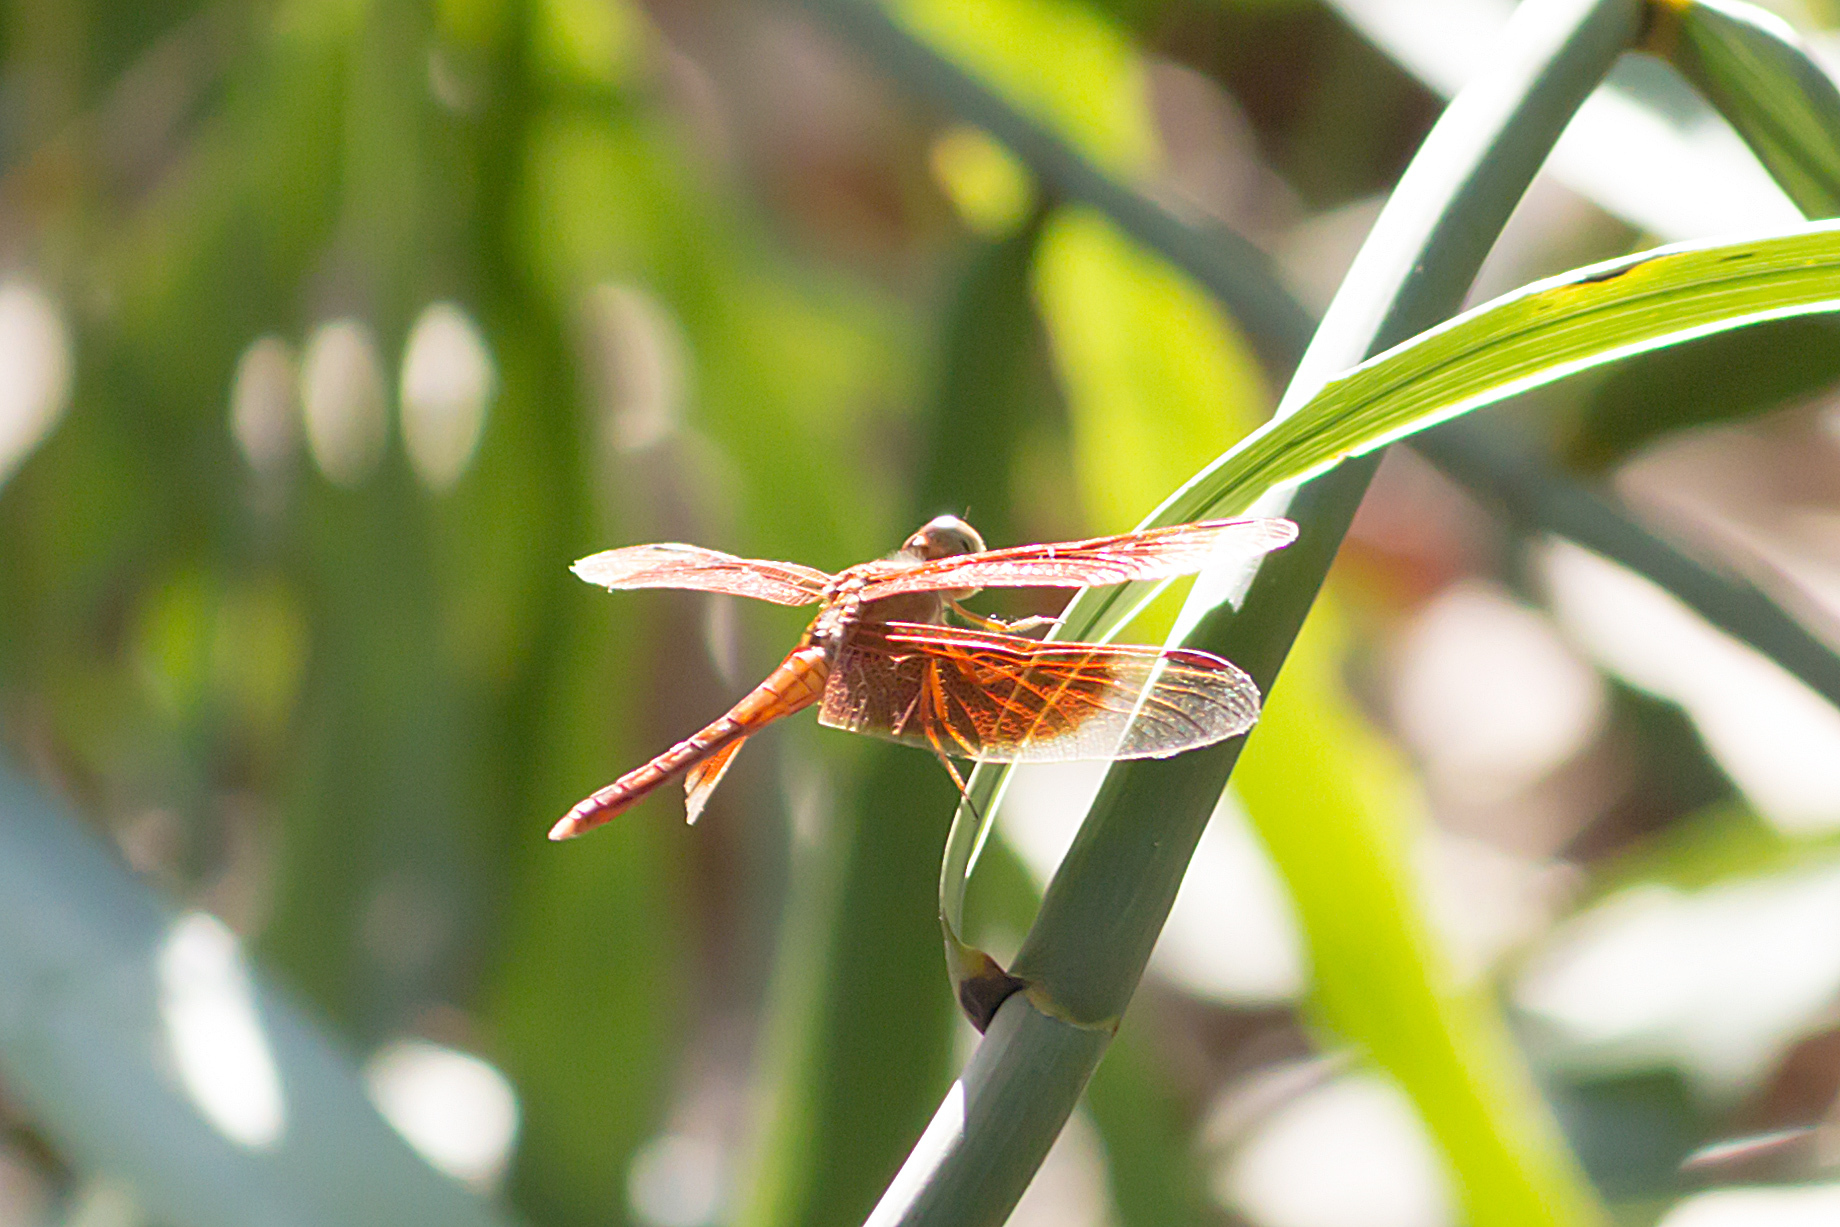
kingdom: Animalia
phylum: Arthropoda
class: Insecta
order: Odonata
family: Libellulidae
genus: Neurothemis
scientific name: Neurothemis stigmatizans
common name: Painted grasshawk
